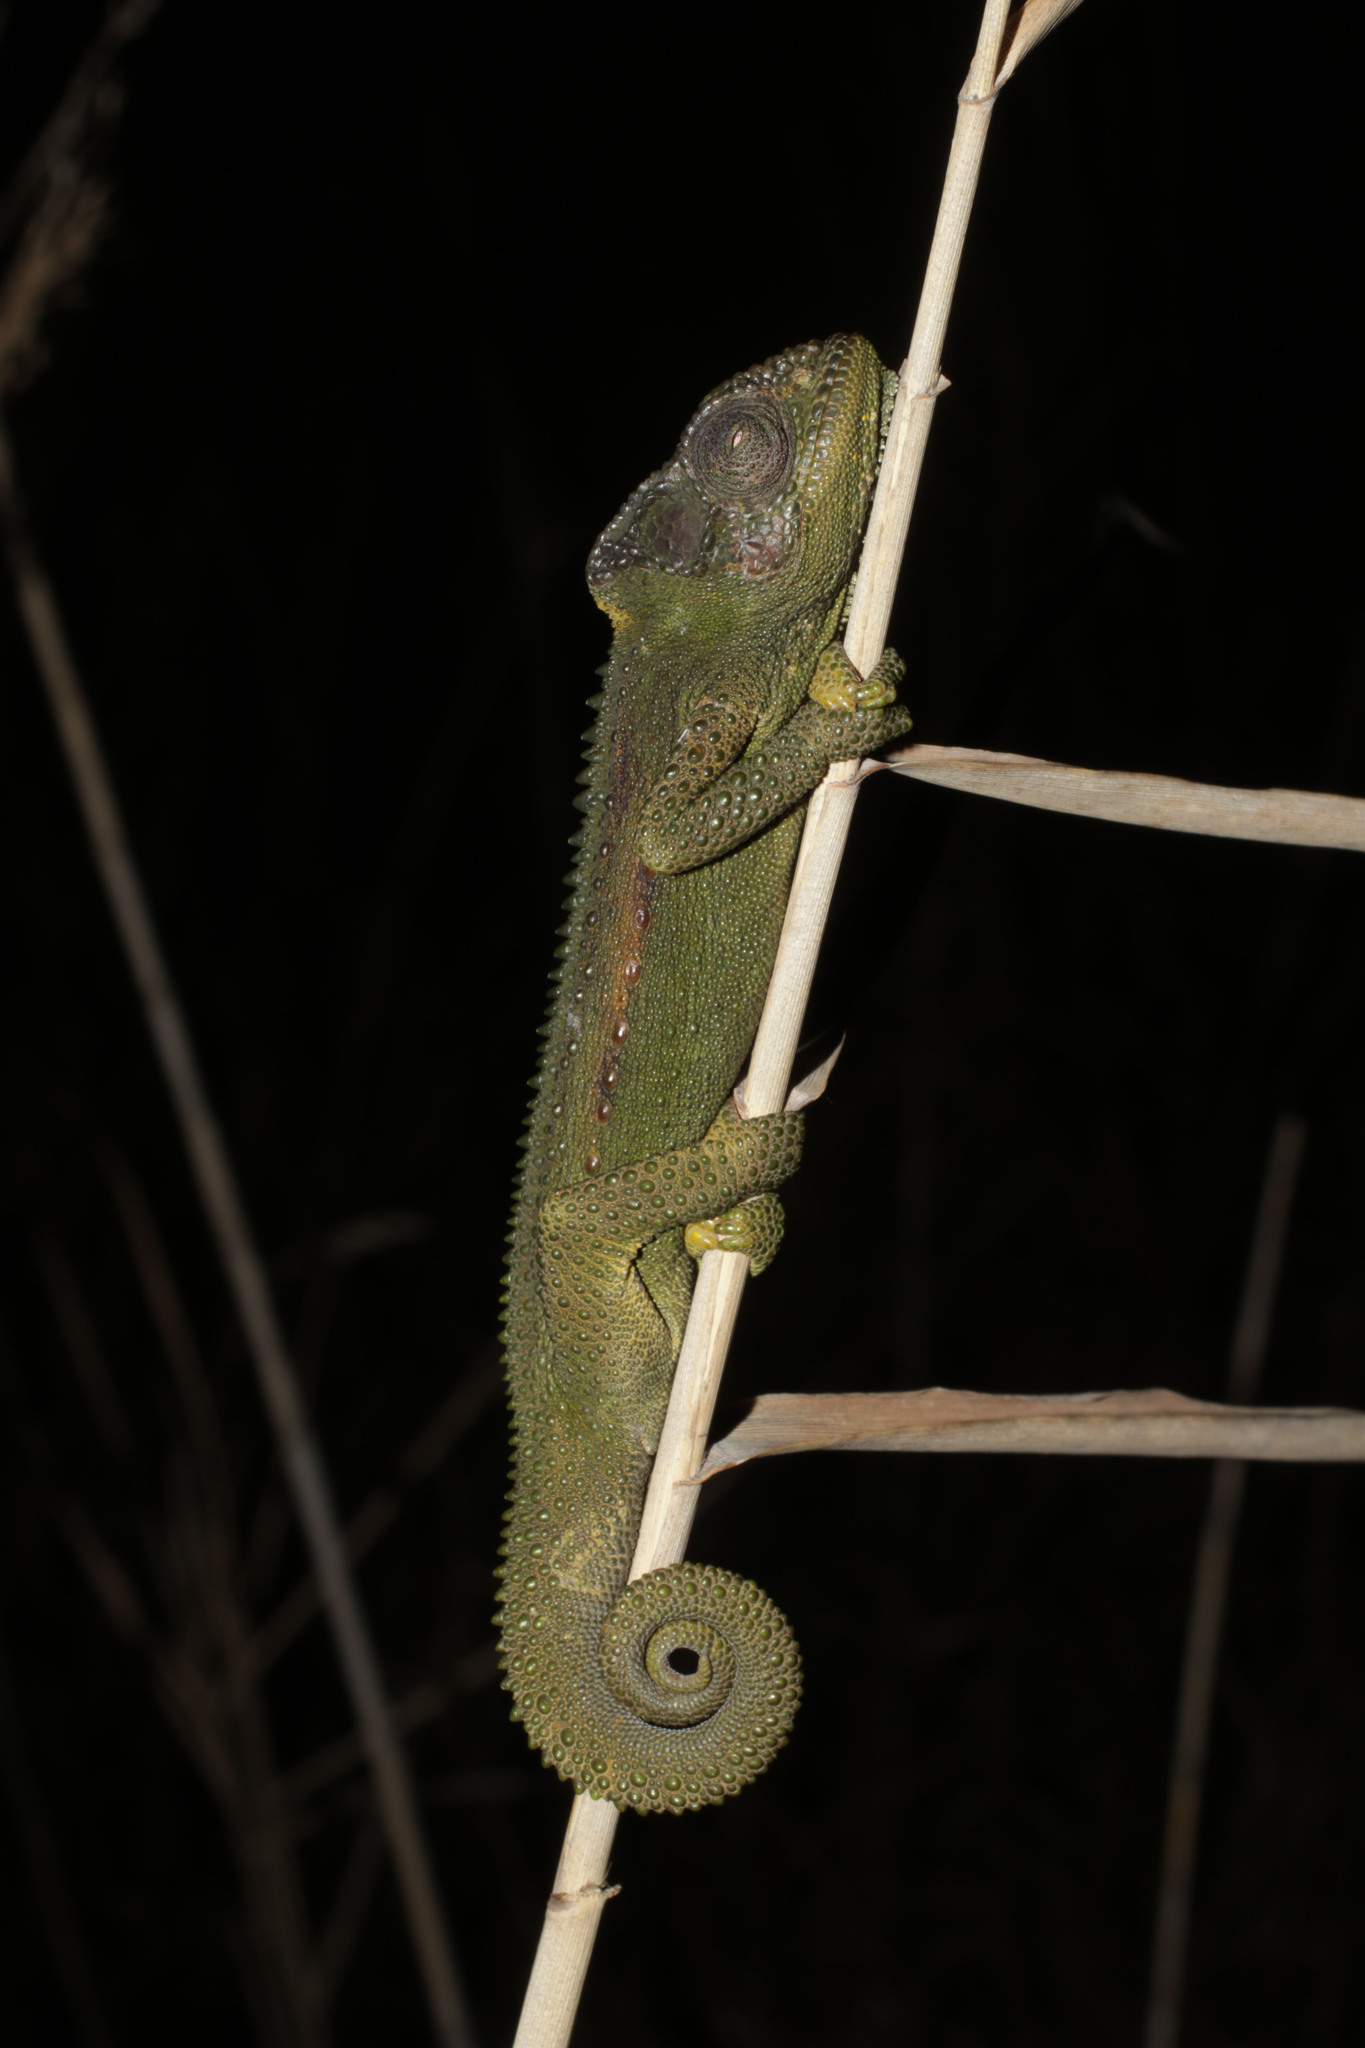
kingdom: Animalia
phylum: Chordata
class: Squamata
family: Chamaeleonidae
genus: Bradypodion
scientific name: Bradypodion pumilum
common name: Cape dwarf chameleon
